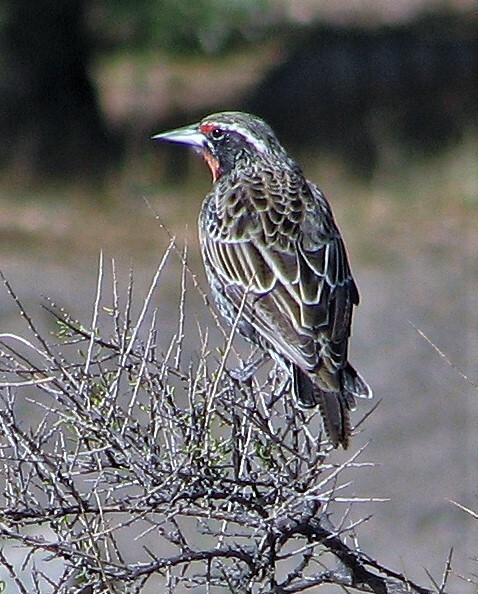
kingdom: Animalia
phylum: Chordata
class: Aves
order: Passeriformes
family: Icteridae
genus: Sturnella
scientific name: Sturnella loyca
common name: Long-tailed meadowlark
